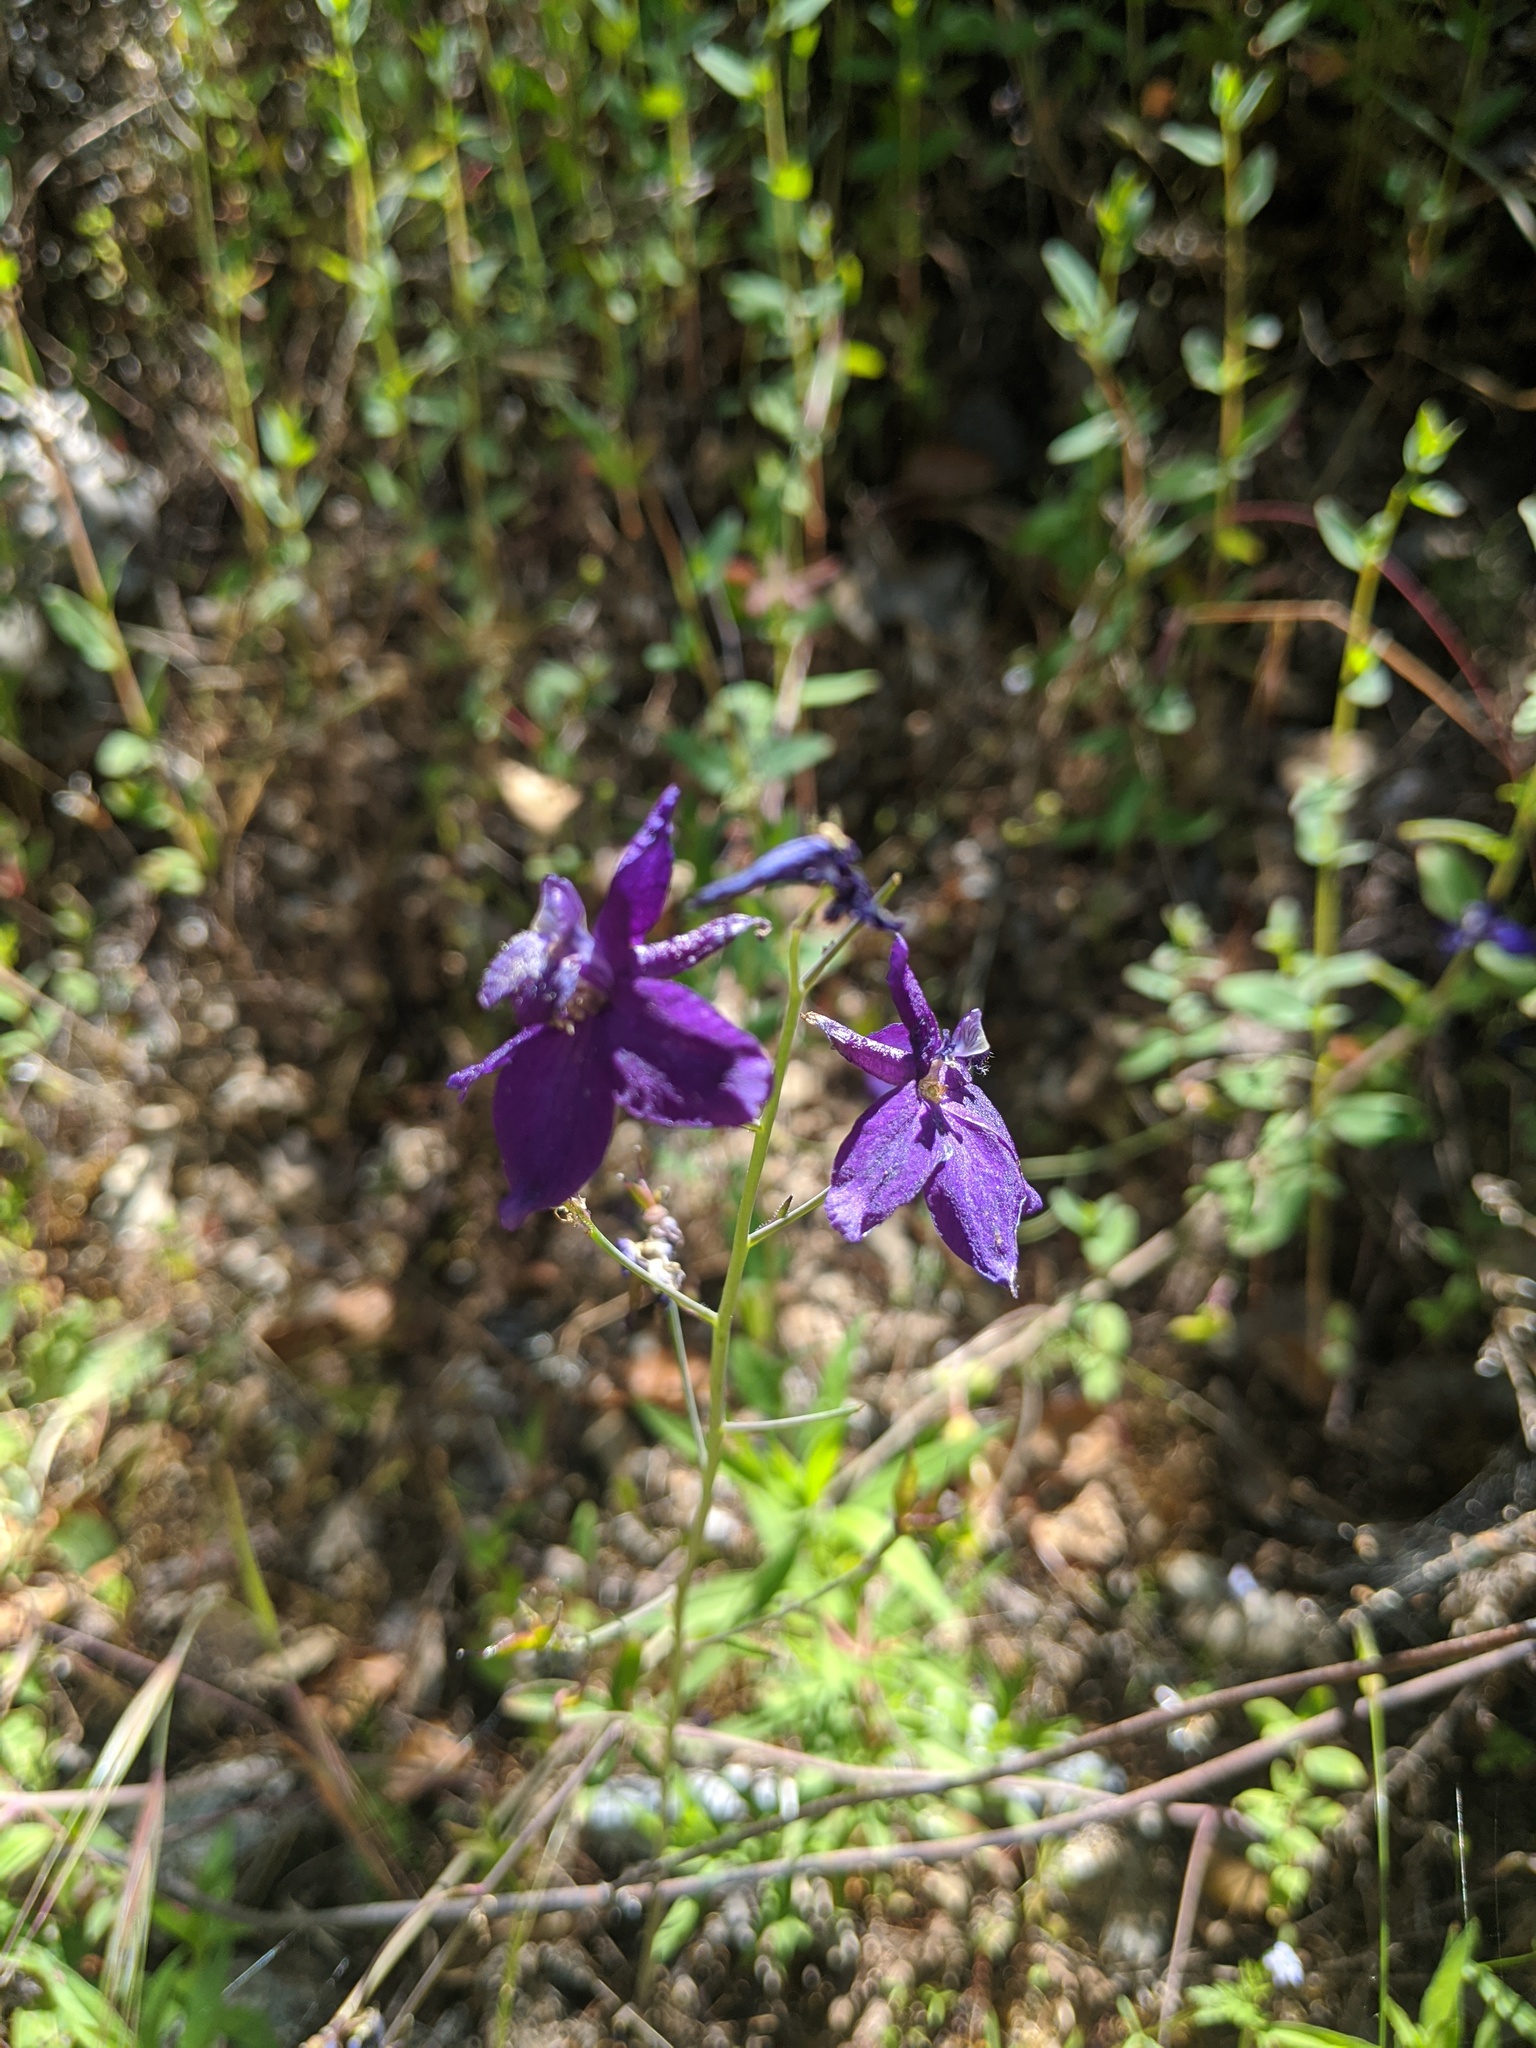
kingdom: Plantae
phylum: Tracheophyta
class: Magnoliopsida
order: Ranunculales
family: Ranunculaceae
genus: Delphinium
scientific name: Delphinium patens
